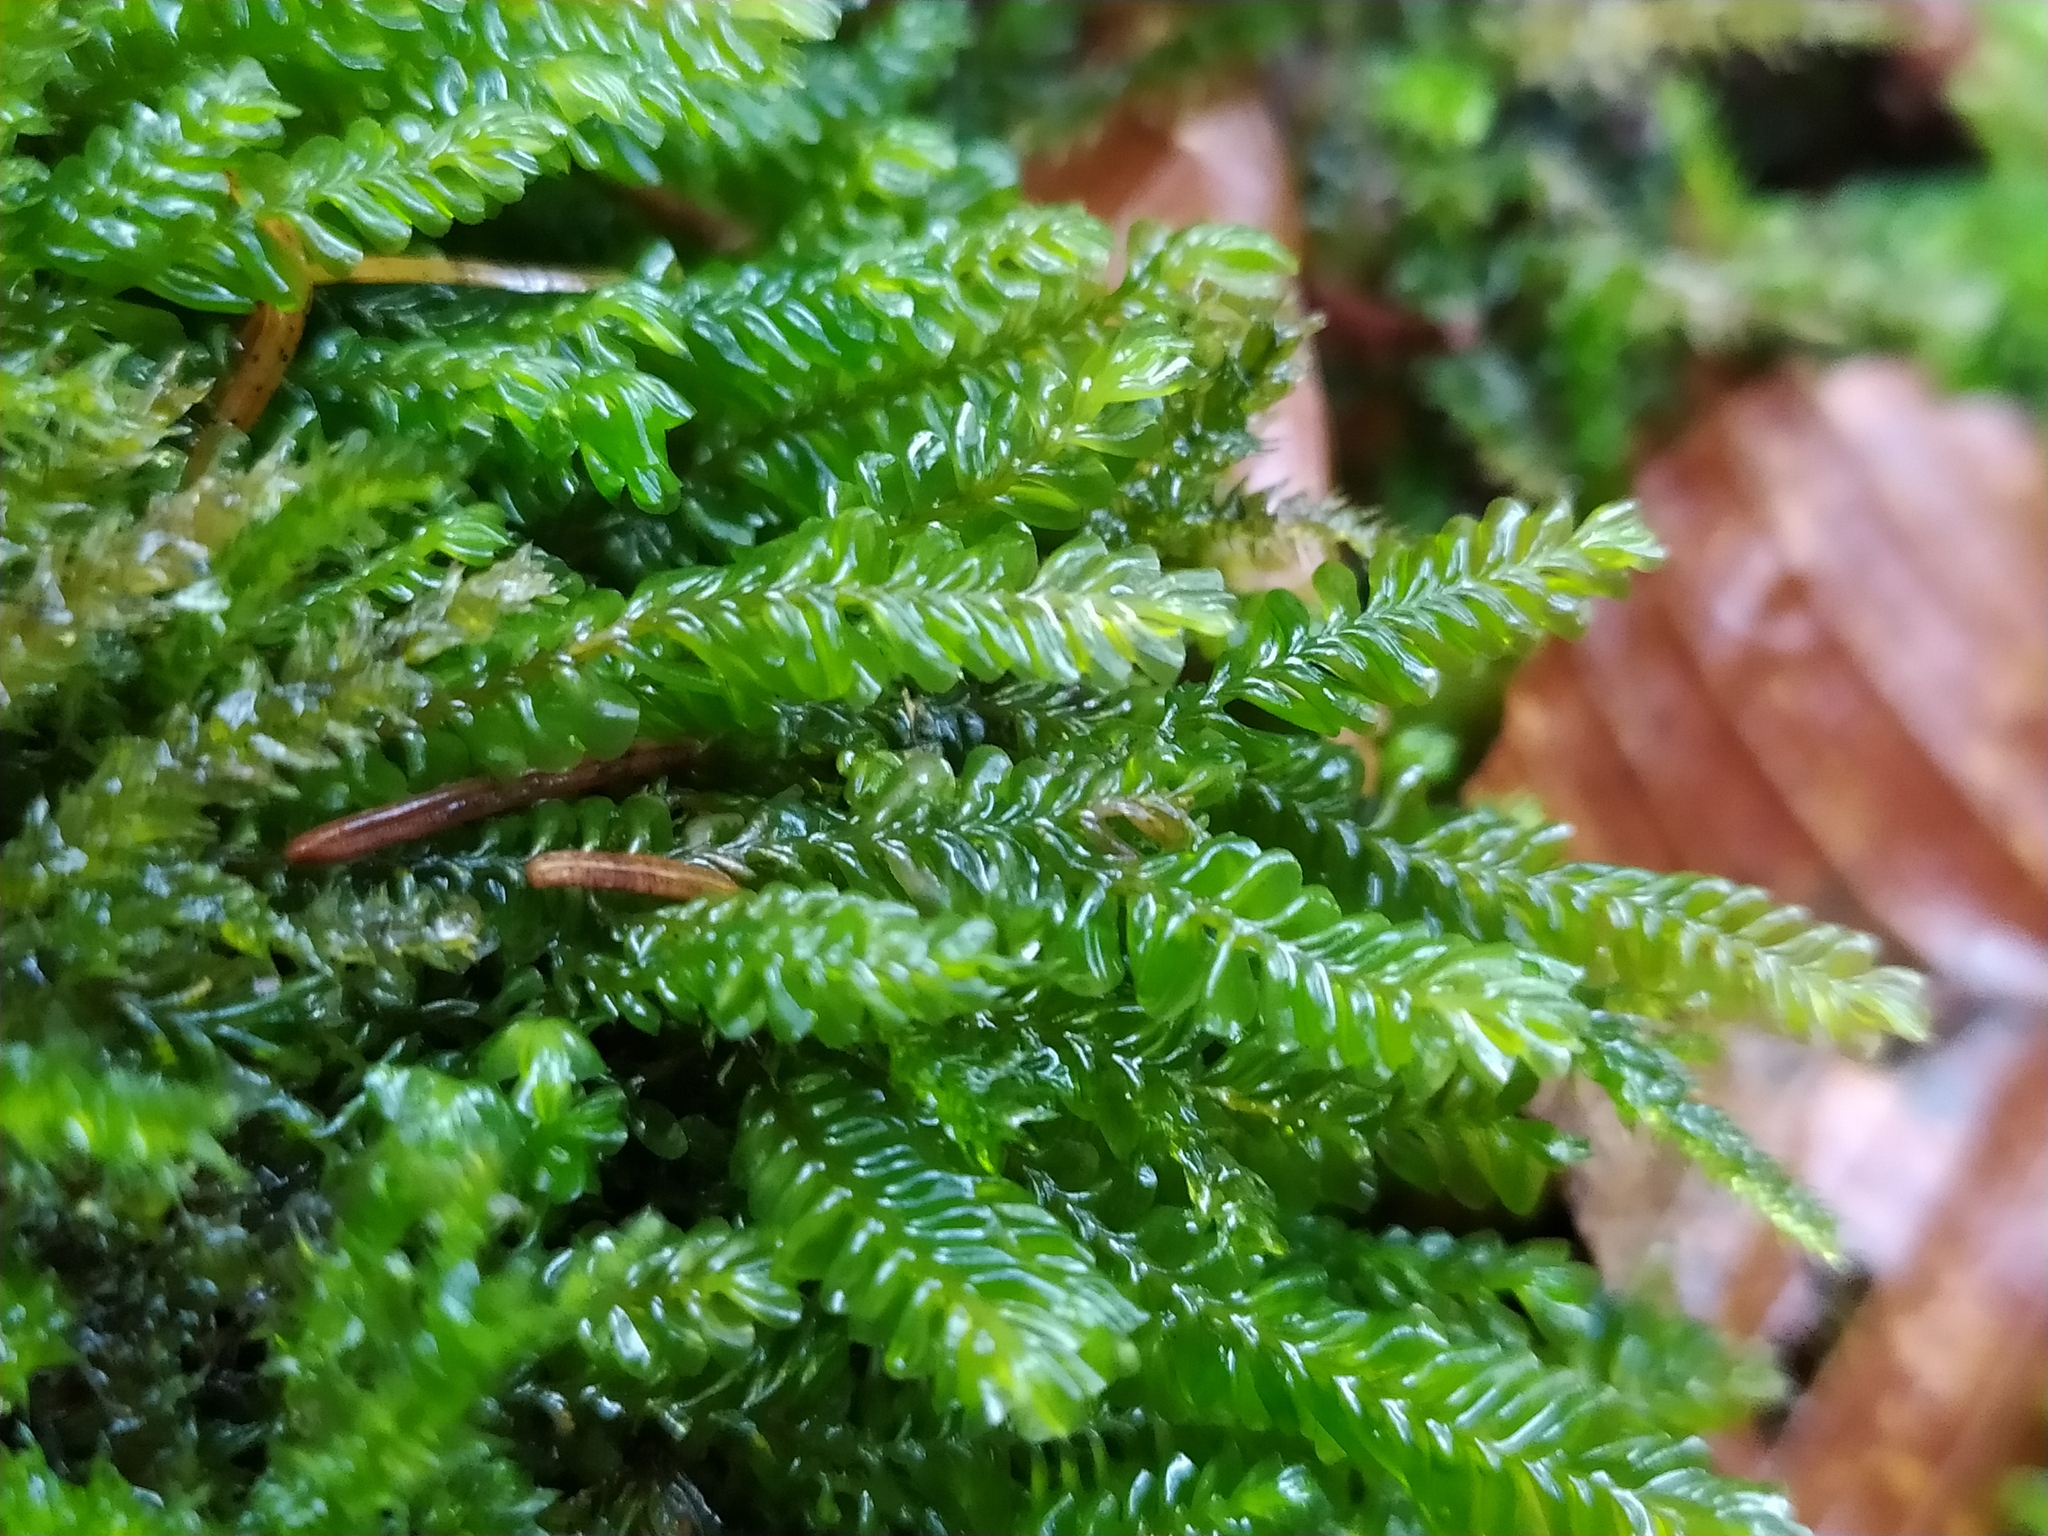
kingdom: Plantae
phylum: Marchantiophyta
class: Jungermanniopsida
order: Jungermanniales
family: Plagiochilaceae
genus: Plagiochila
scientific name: Plagiochila porelloides
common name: Lesser featherwort
